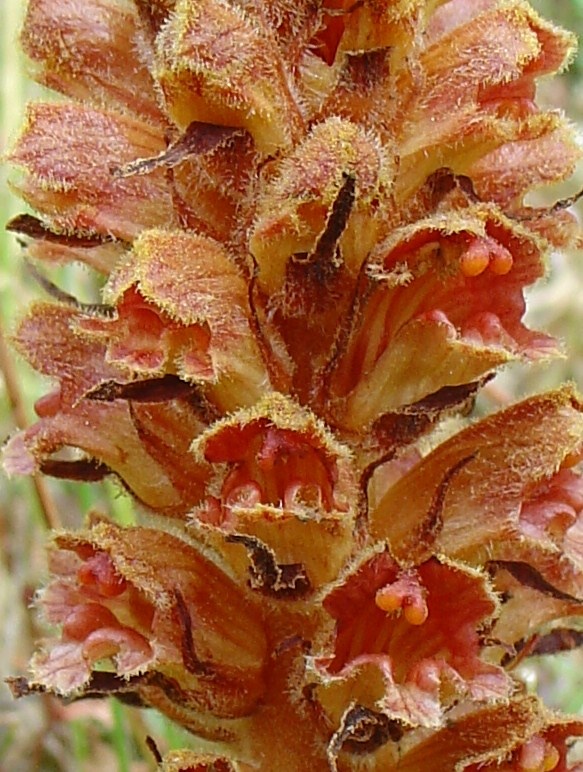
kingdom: Plantae
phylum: Tracheophyta
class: Magnoliopsida
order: Lamiales
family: Orobanchaceae
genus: Orobanche
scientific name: Orobanche gracilis
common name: Slender broomrape
